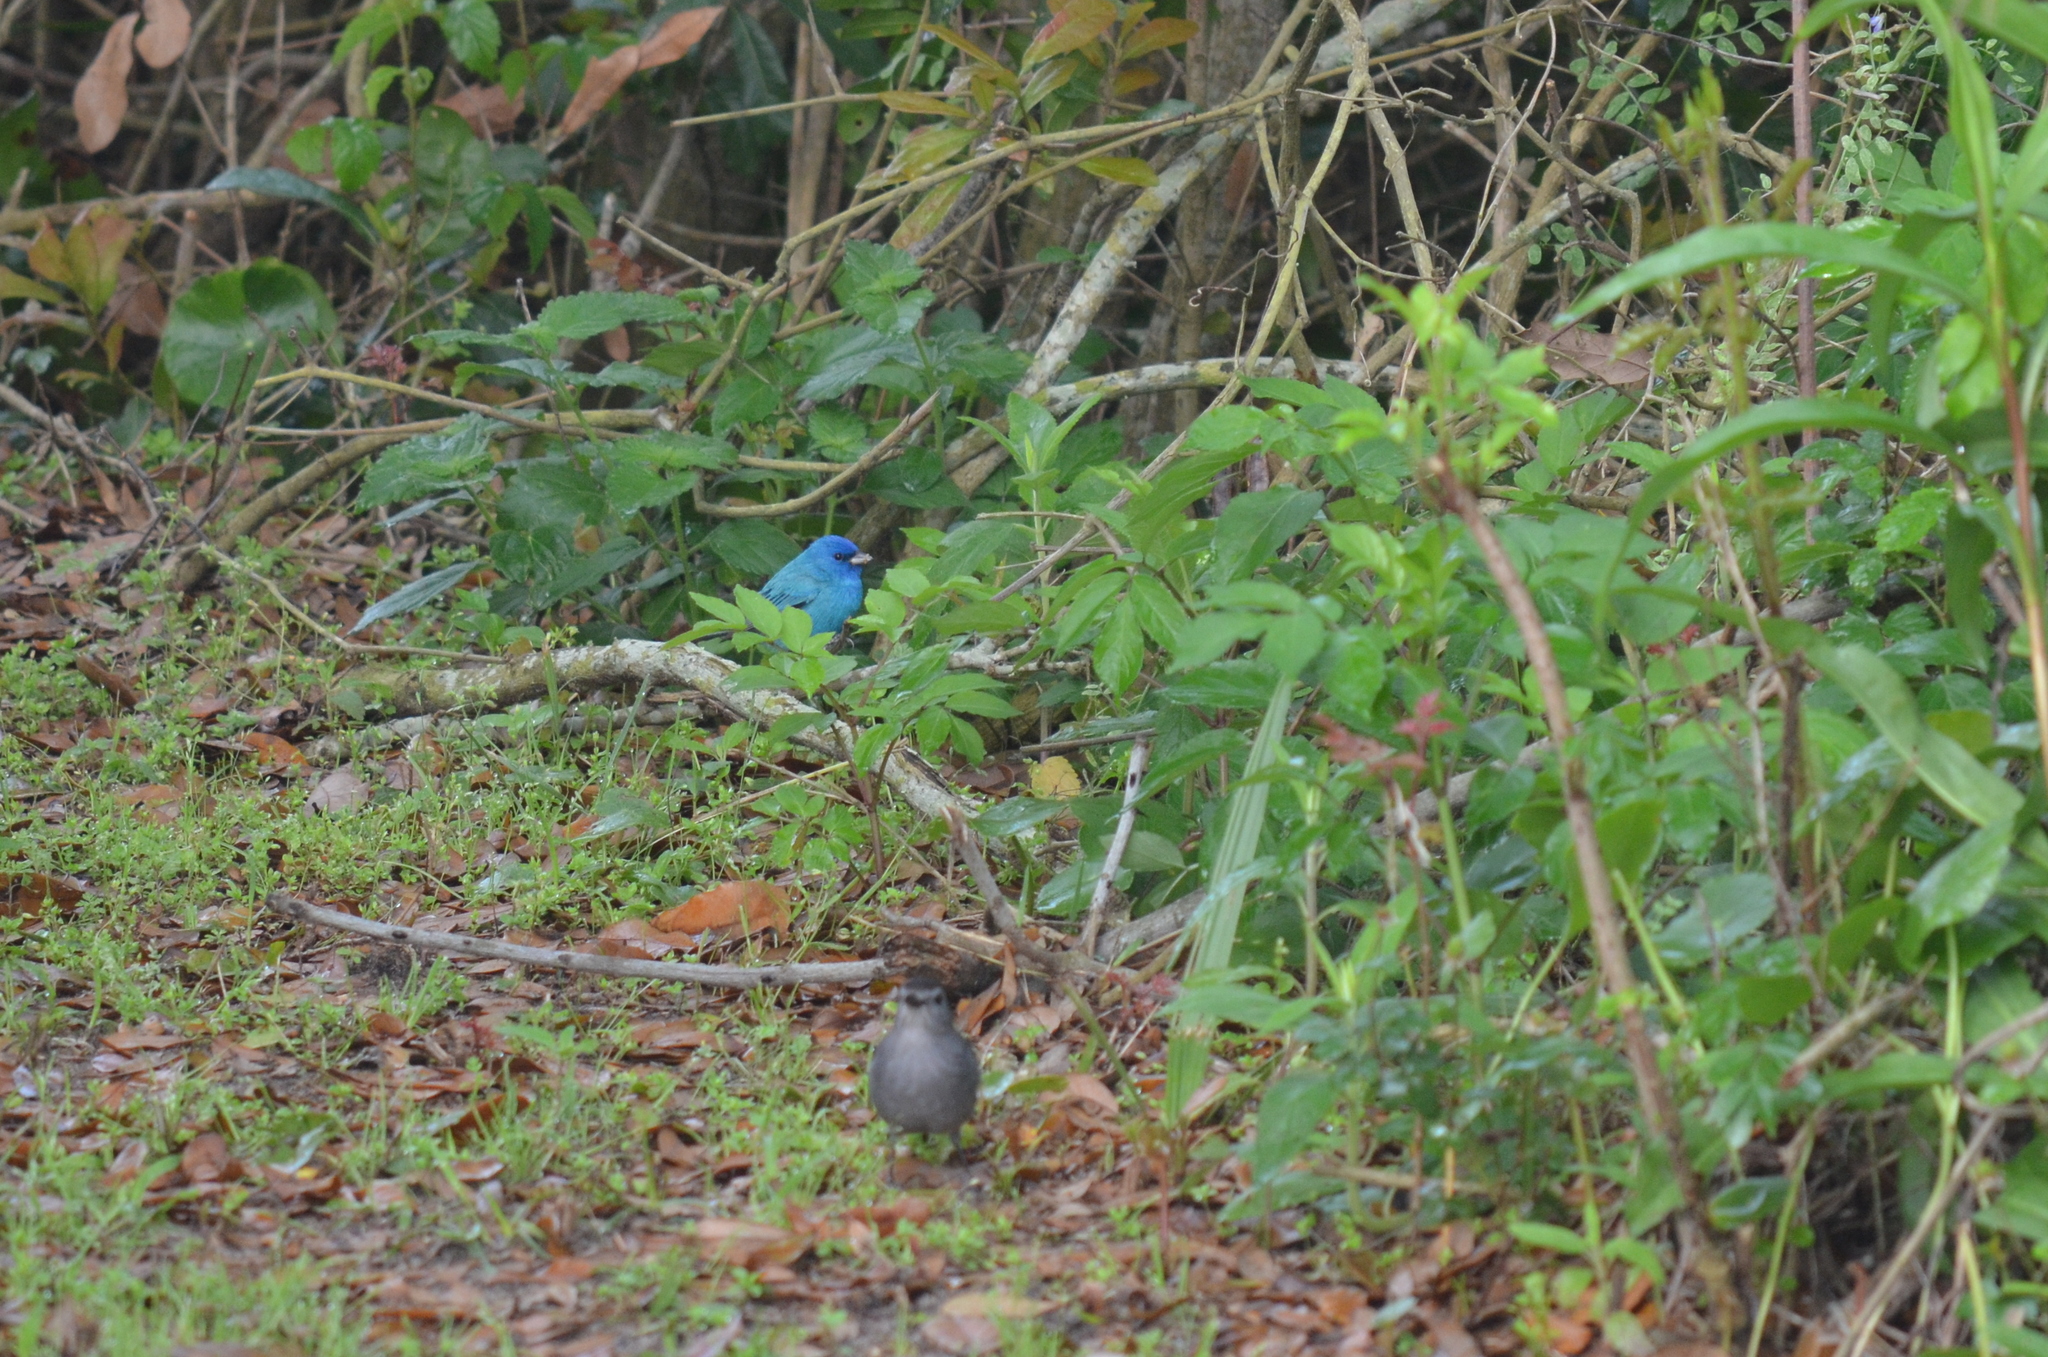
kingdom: Animalia
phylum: Chordata
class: Aves
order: Passeriformes
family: Cardinalidae
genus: Passerina
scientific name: Passerina cyanea
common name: Indigo bunting
